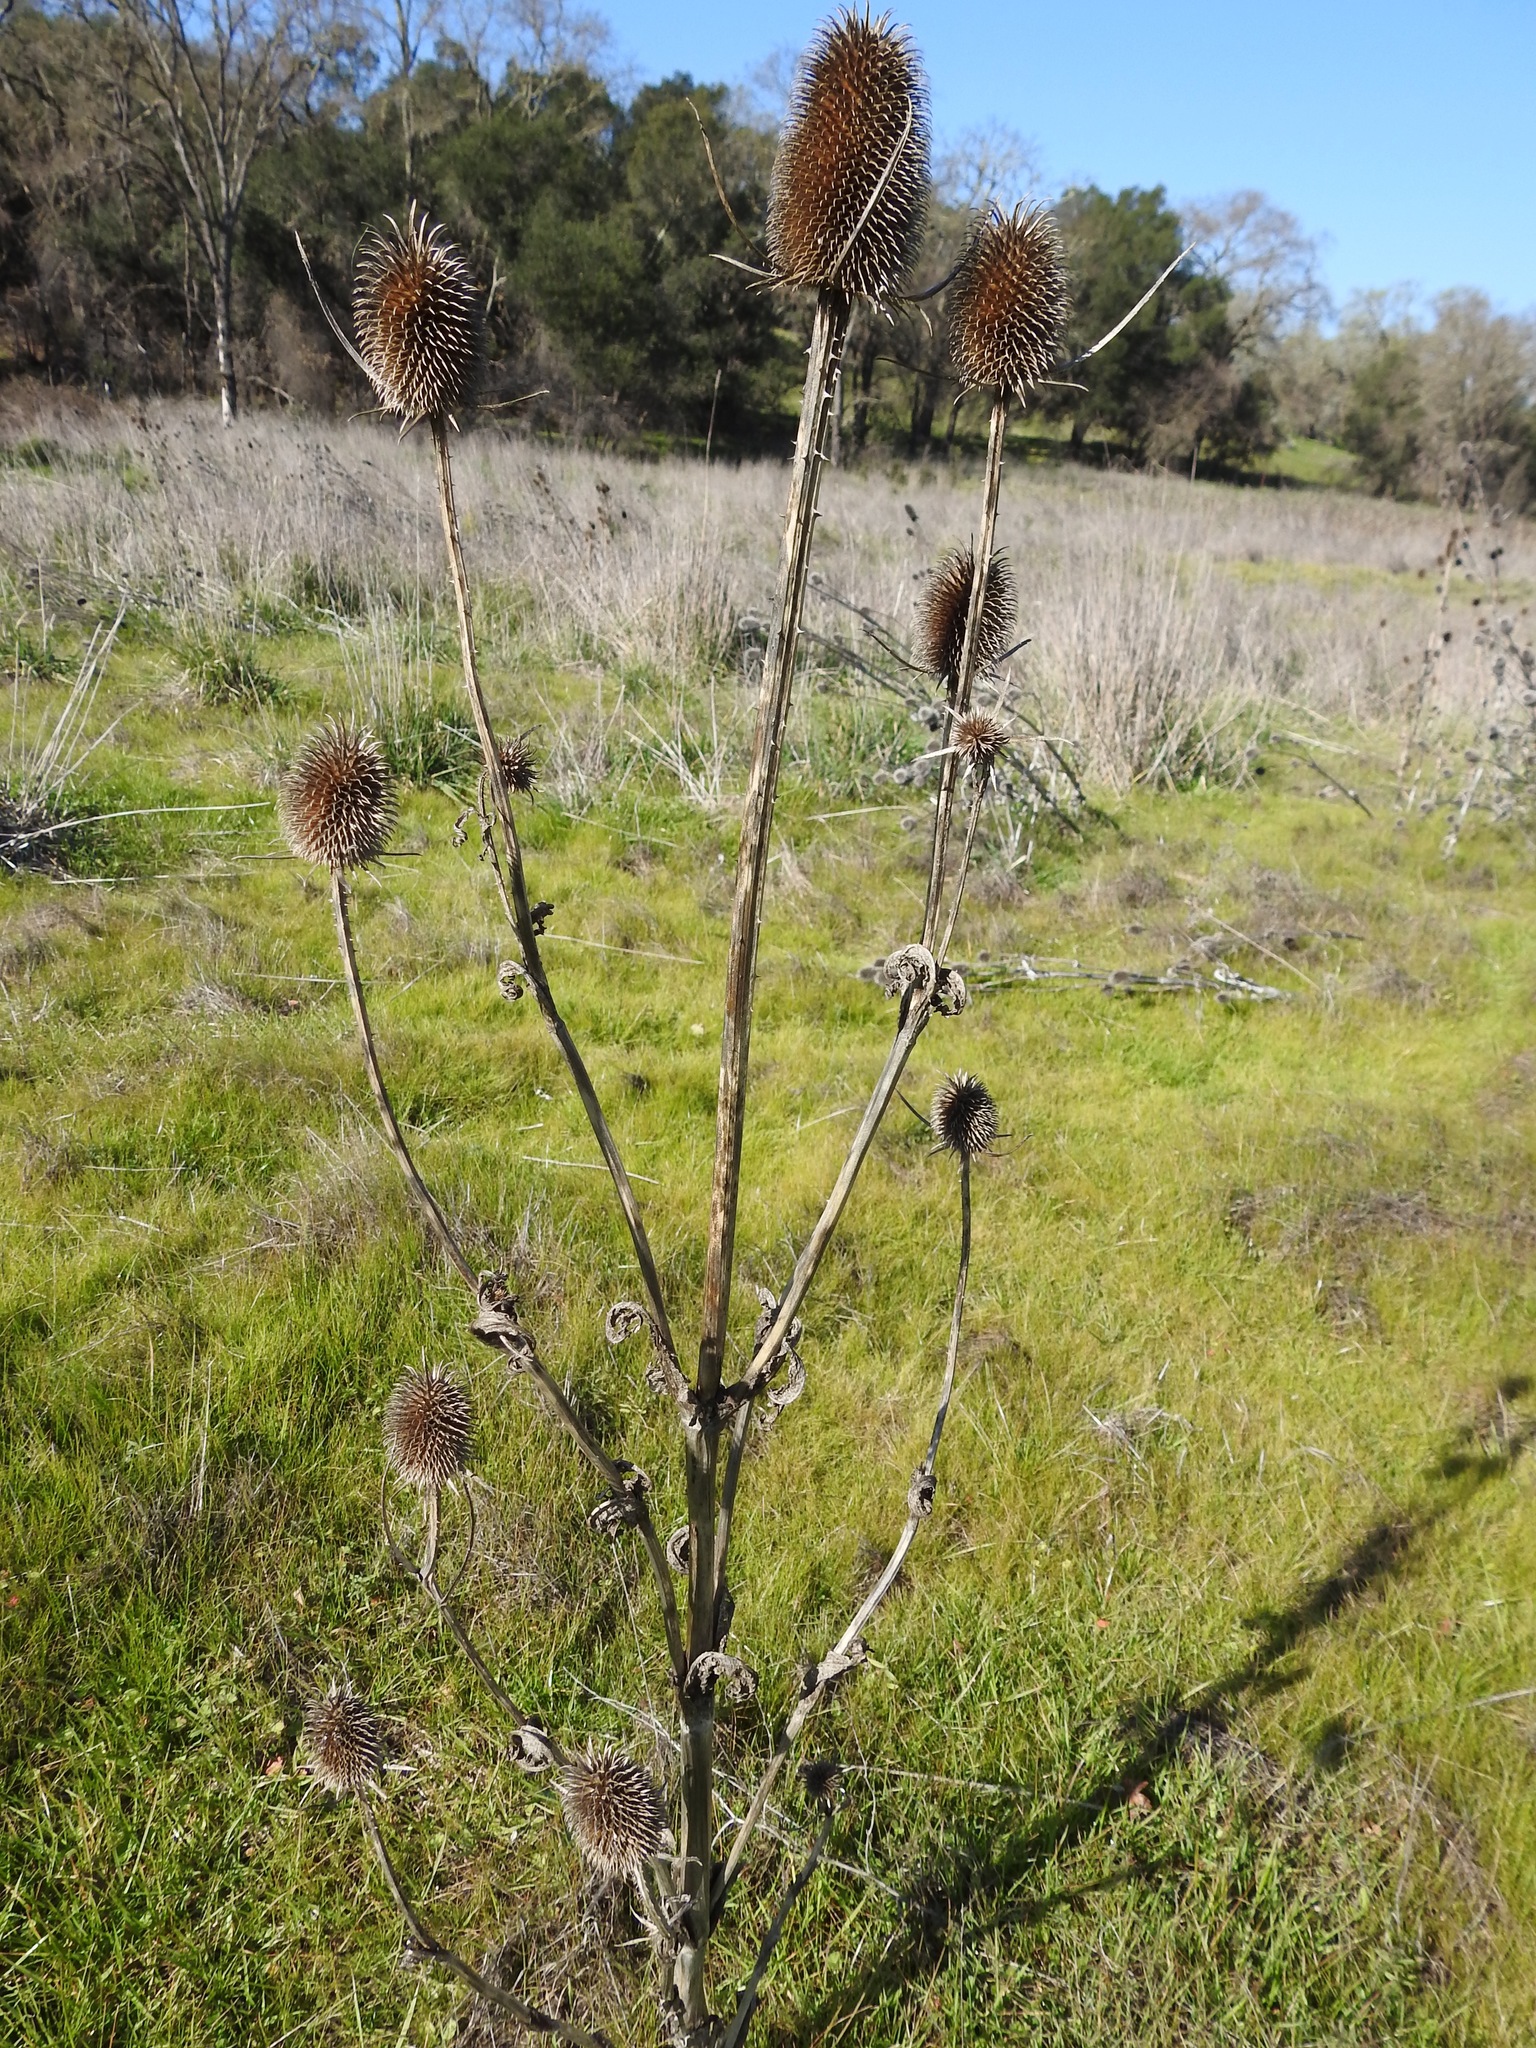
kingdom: Plantae
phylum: Tracheophyta
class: Magnoliopsida
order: Dipsacales
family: Caprifoliaceae
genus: Dipsacus
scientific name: Dipsacus sativus
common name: Fuller's teasel
